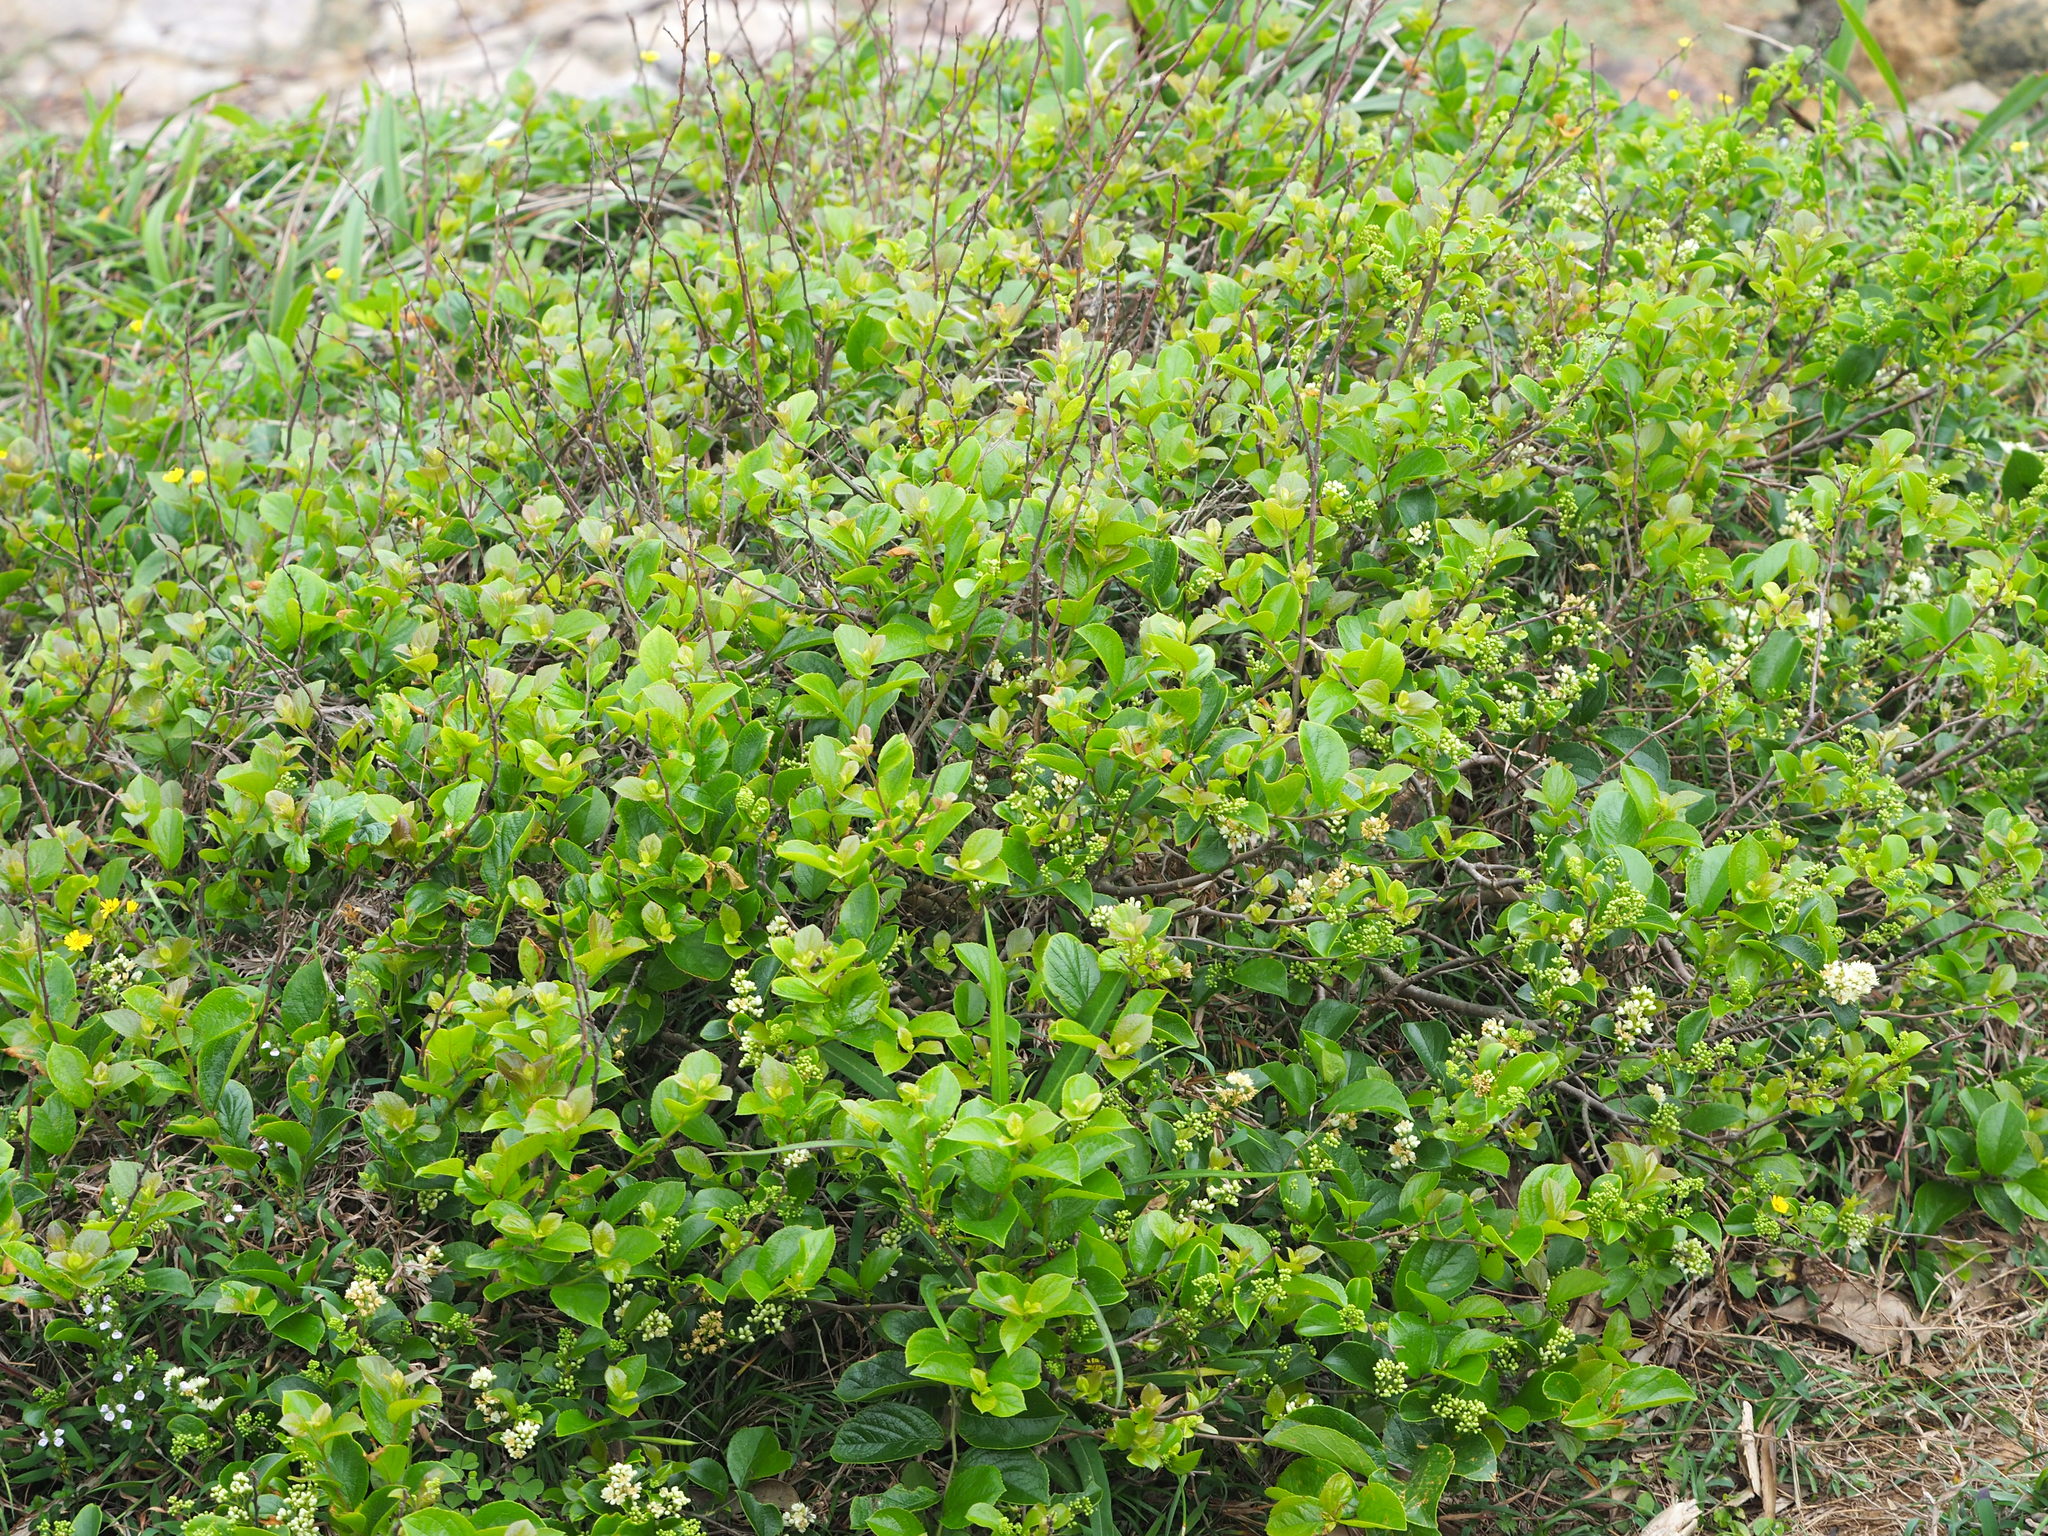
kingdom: Plantae
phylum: Tracheophyta
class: Magnoliopsida
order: Ericales
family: Symplocaceae
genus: Symplocos
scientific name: Symplocos paniculata
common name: Sapphire-berry
